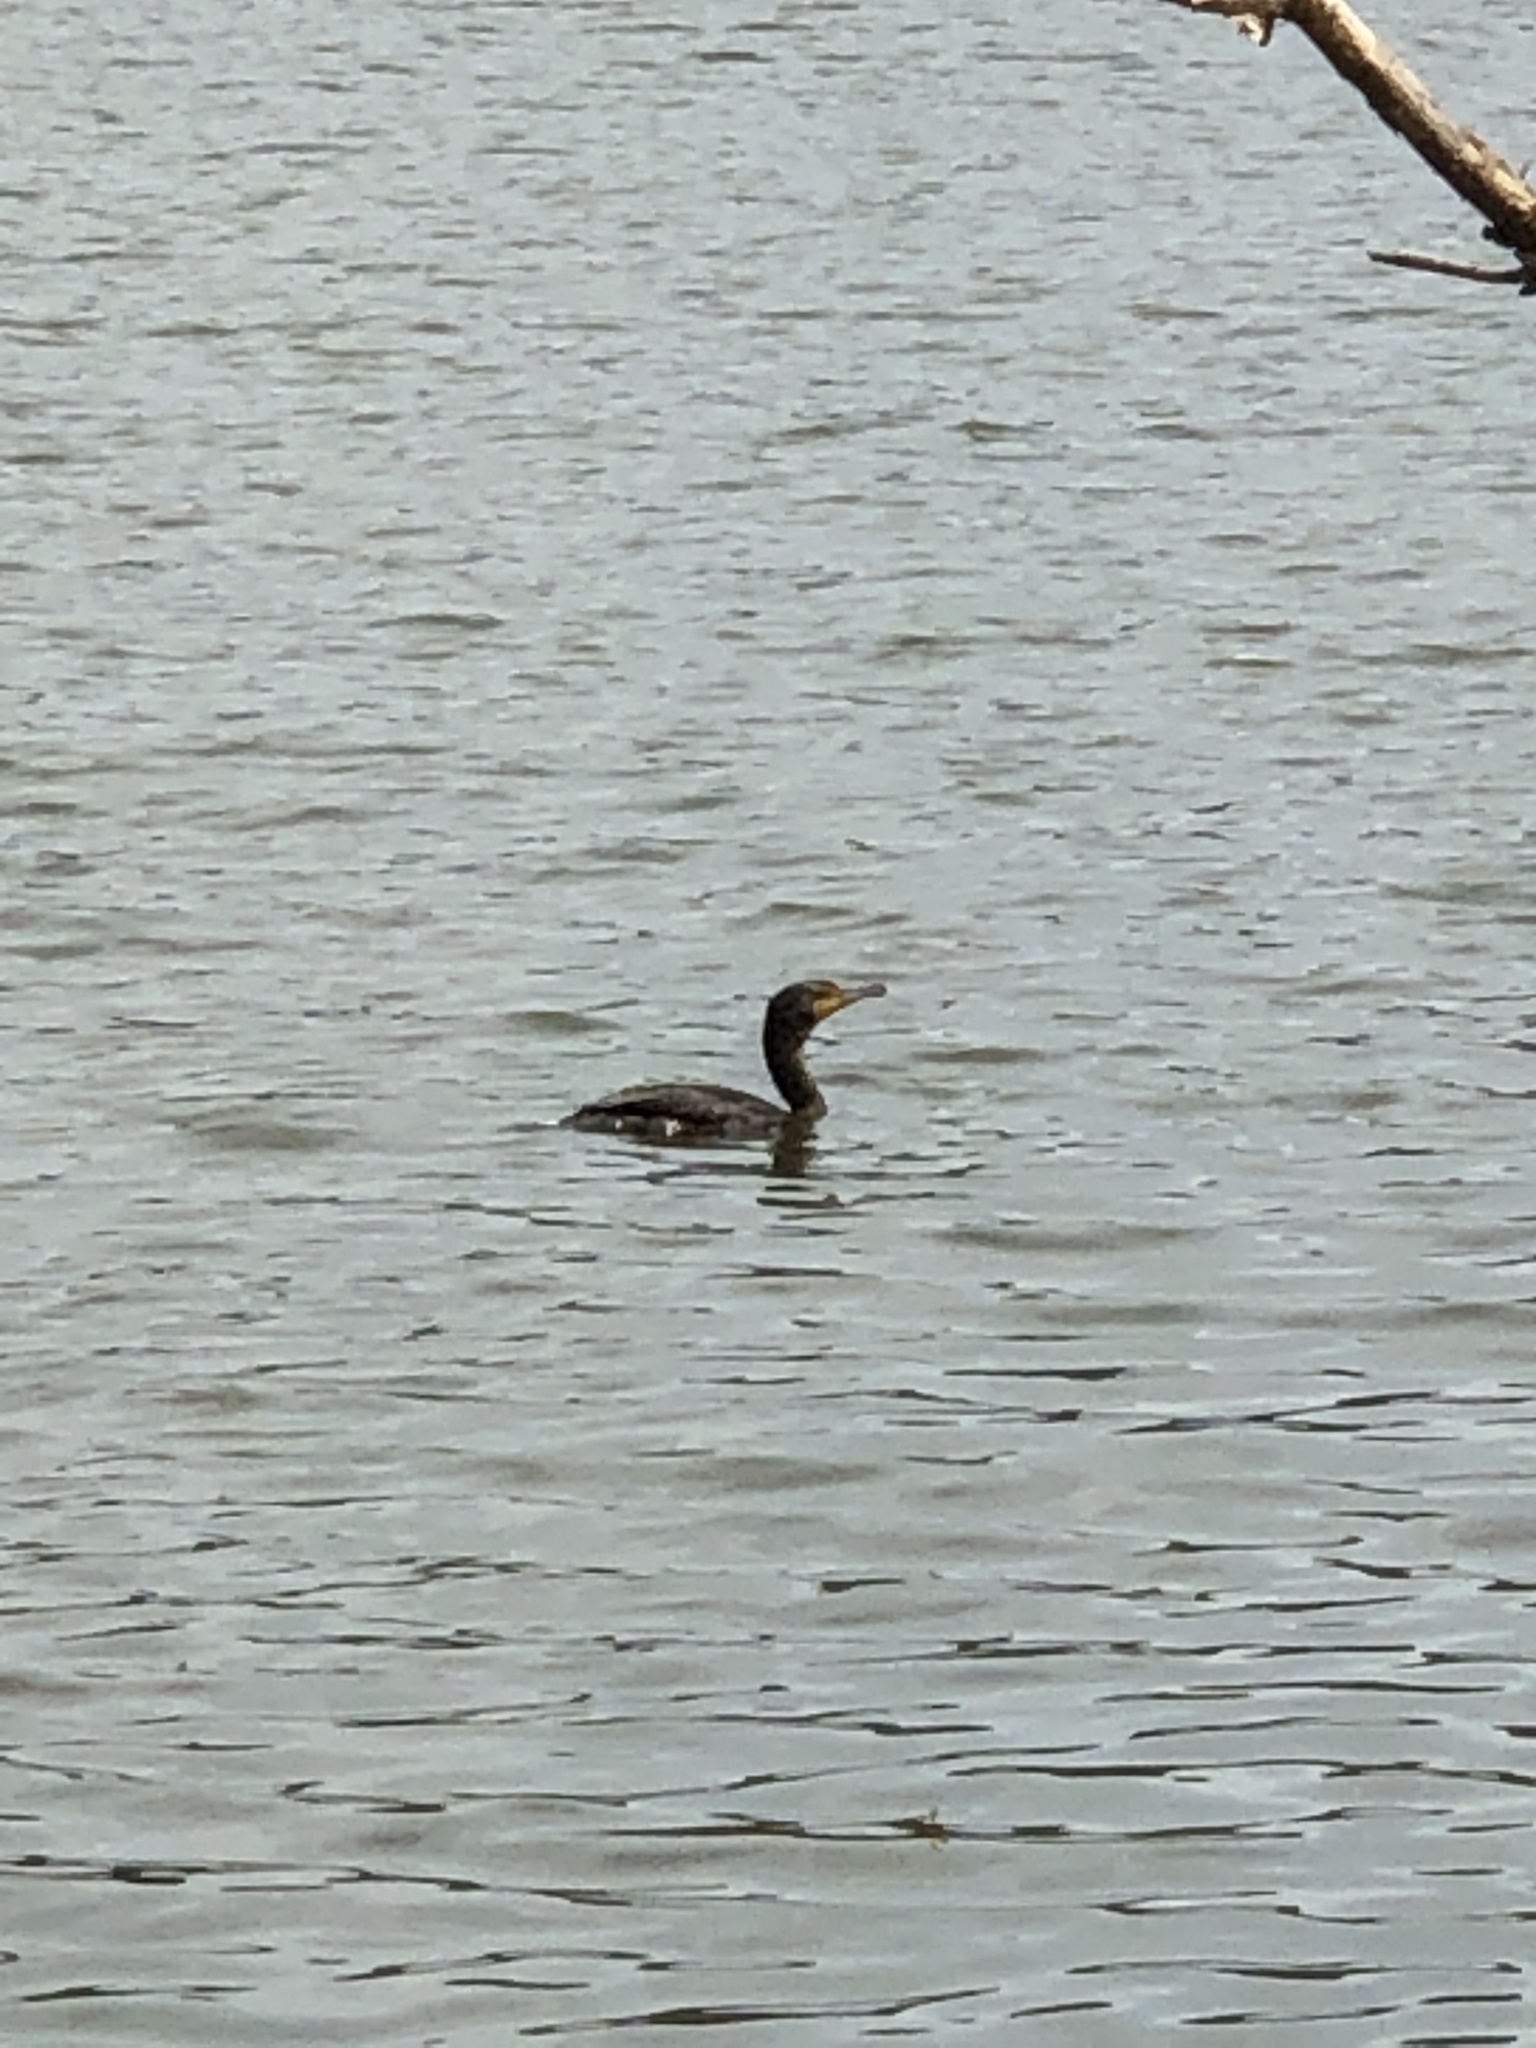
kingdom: Animalia
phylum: Chordata
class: Aves
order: Suliformes
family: Phalacrocoracidae
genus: Phalacrocorax
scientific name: Phalacrocorax auritus
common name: Double-crested cormorant
